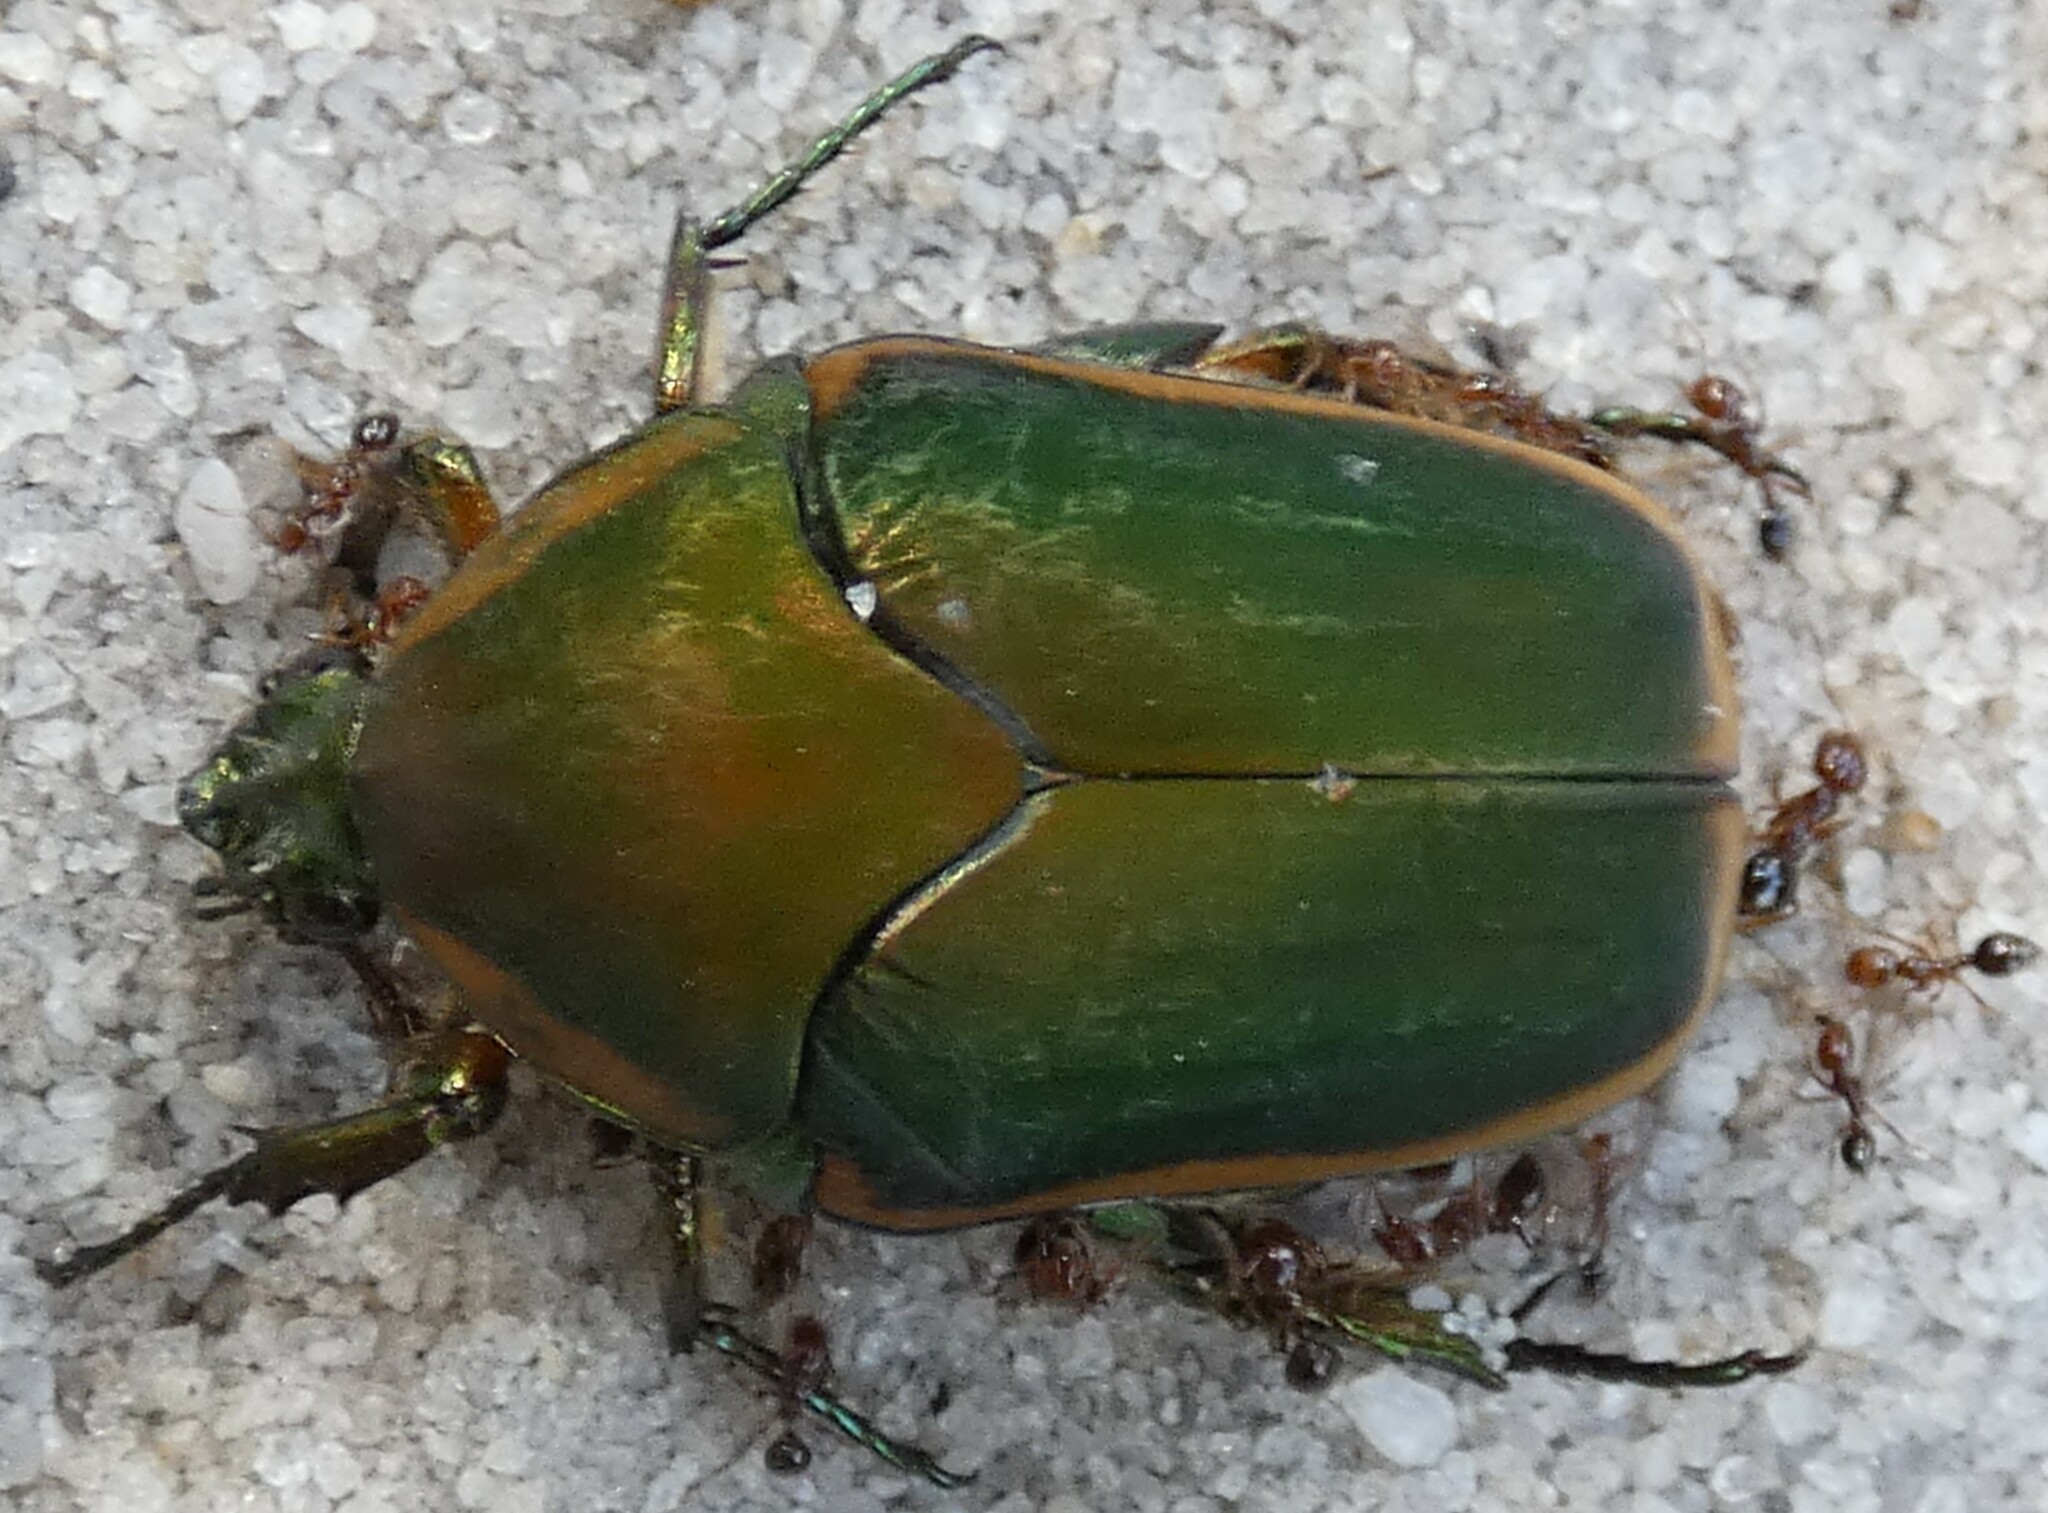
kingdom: Animalia
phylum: Arthropoda
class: Insecta
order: Coleoptera
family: Scarabaeidae
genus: Cotinis
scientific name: Cotinis nitida
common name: Common green june beetle
